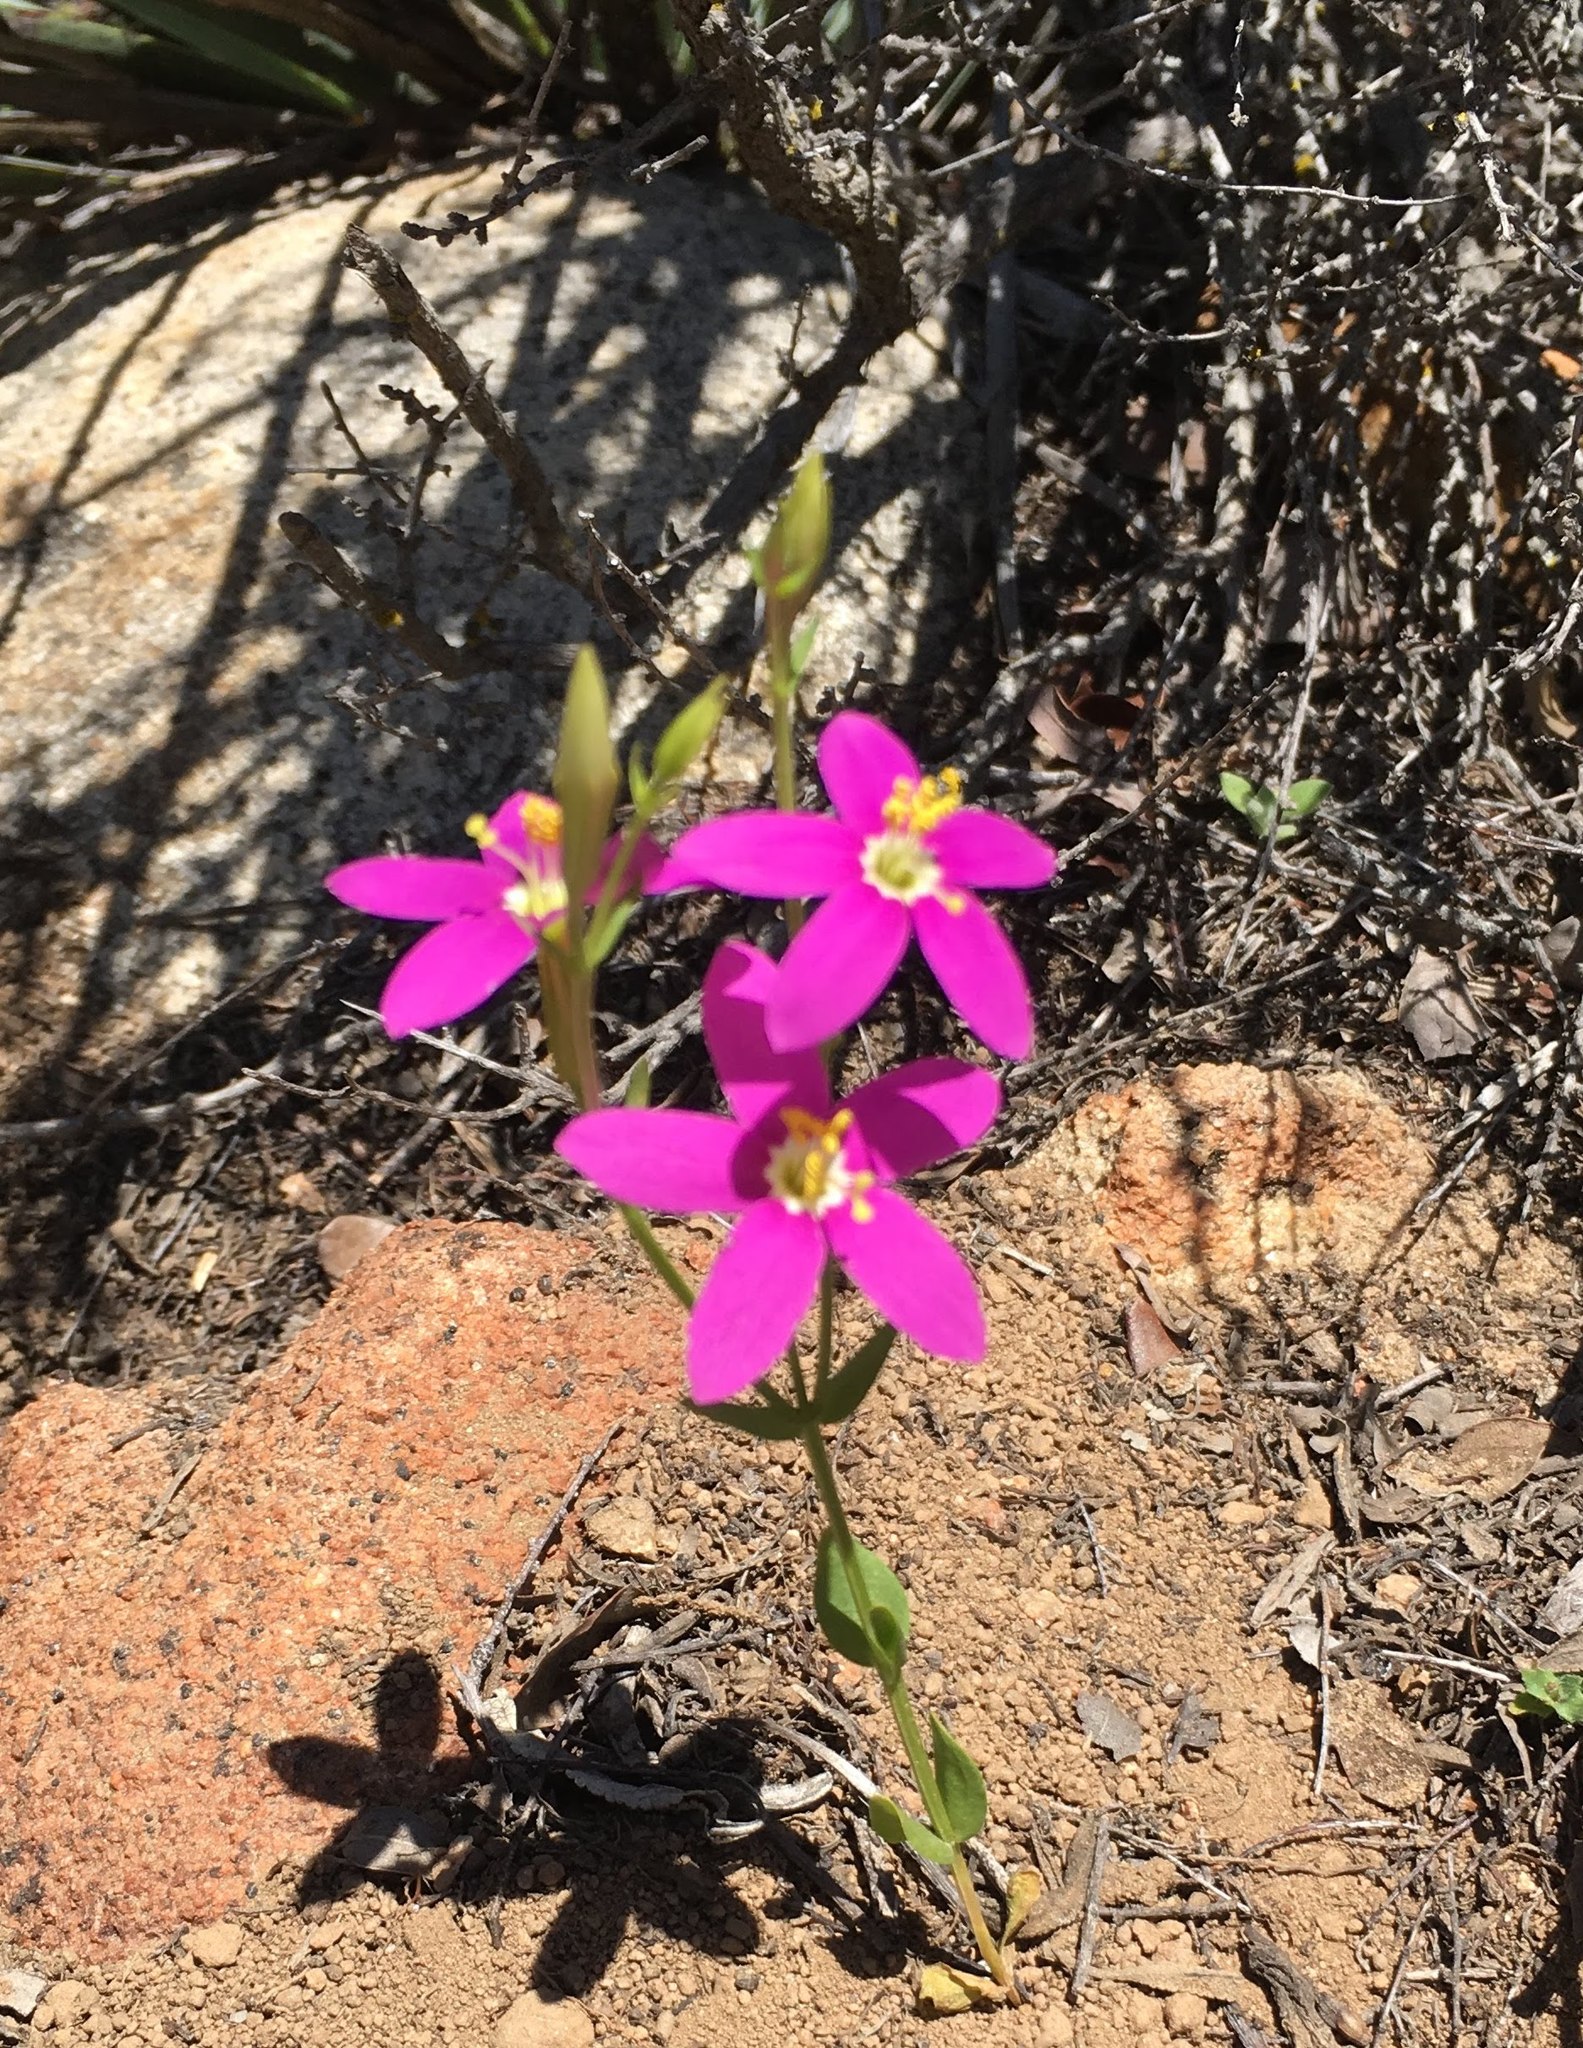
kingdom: Plantae
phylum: Tracheophyta
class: Magnoliopsida
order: Gentianales
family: Gentianaceae
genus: Zeltnera
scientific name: Zeltnera venusta
